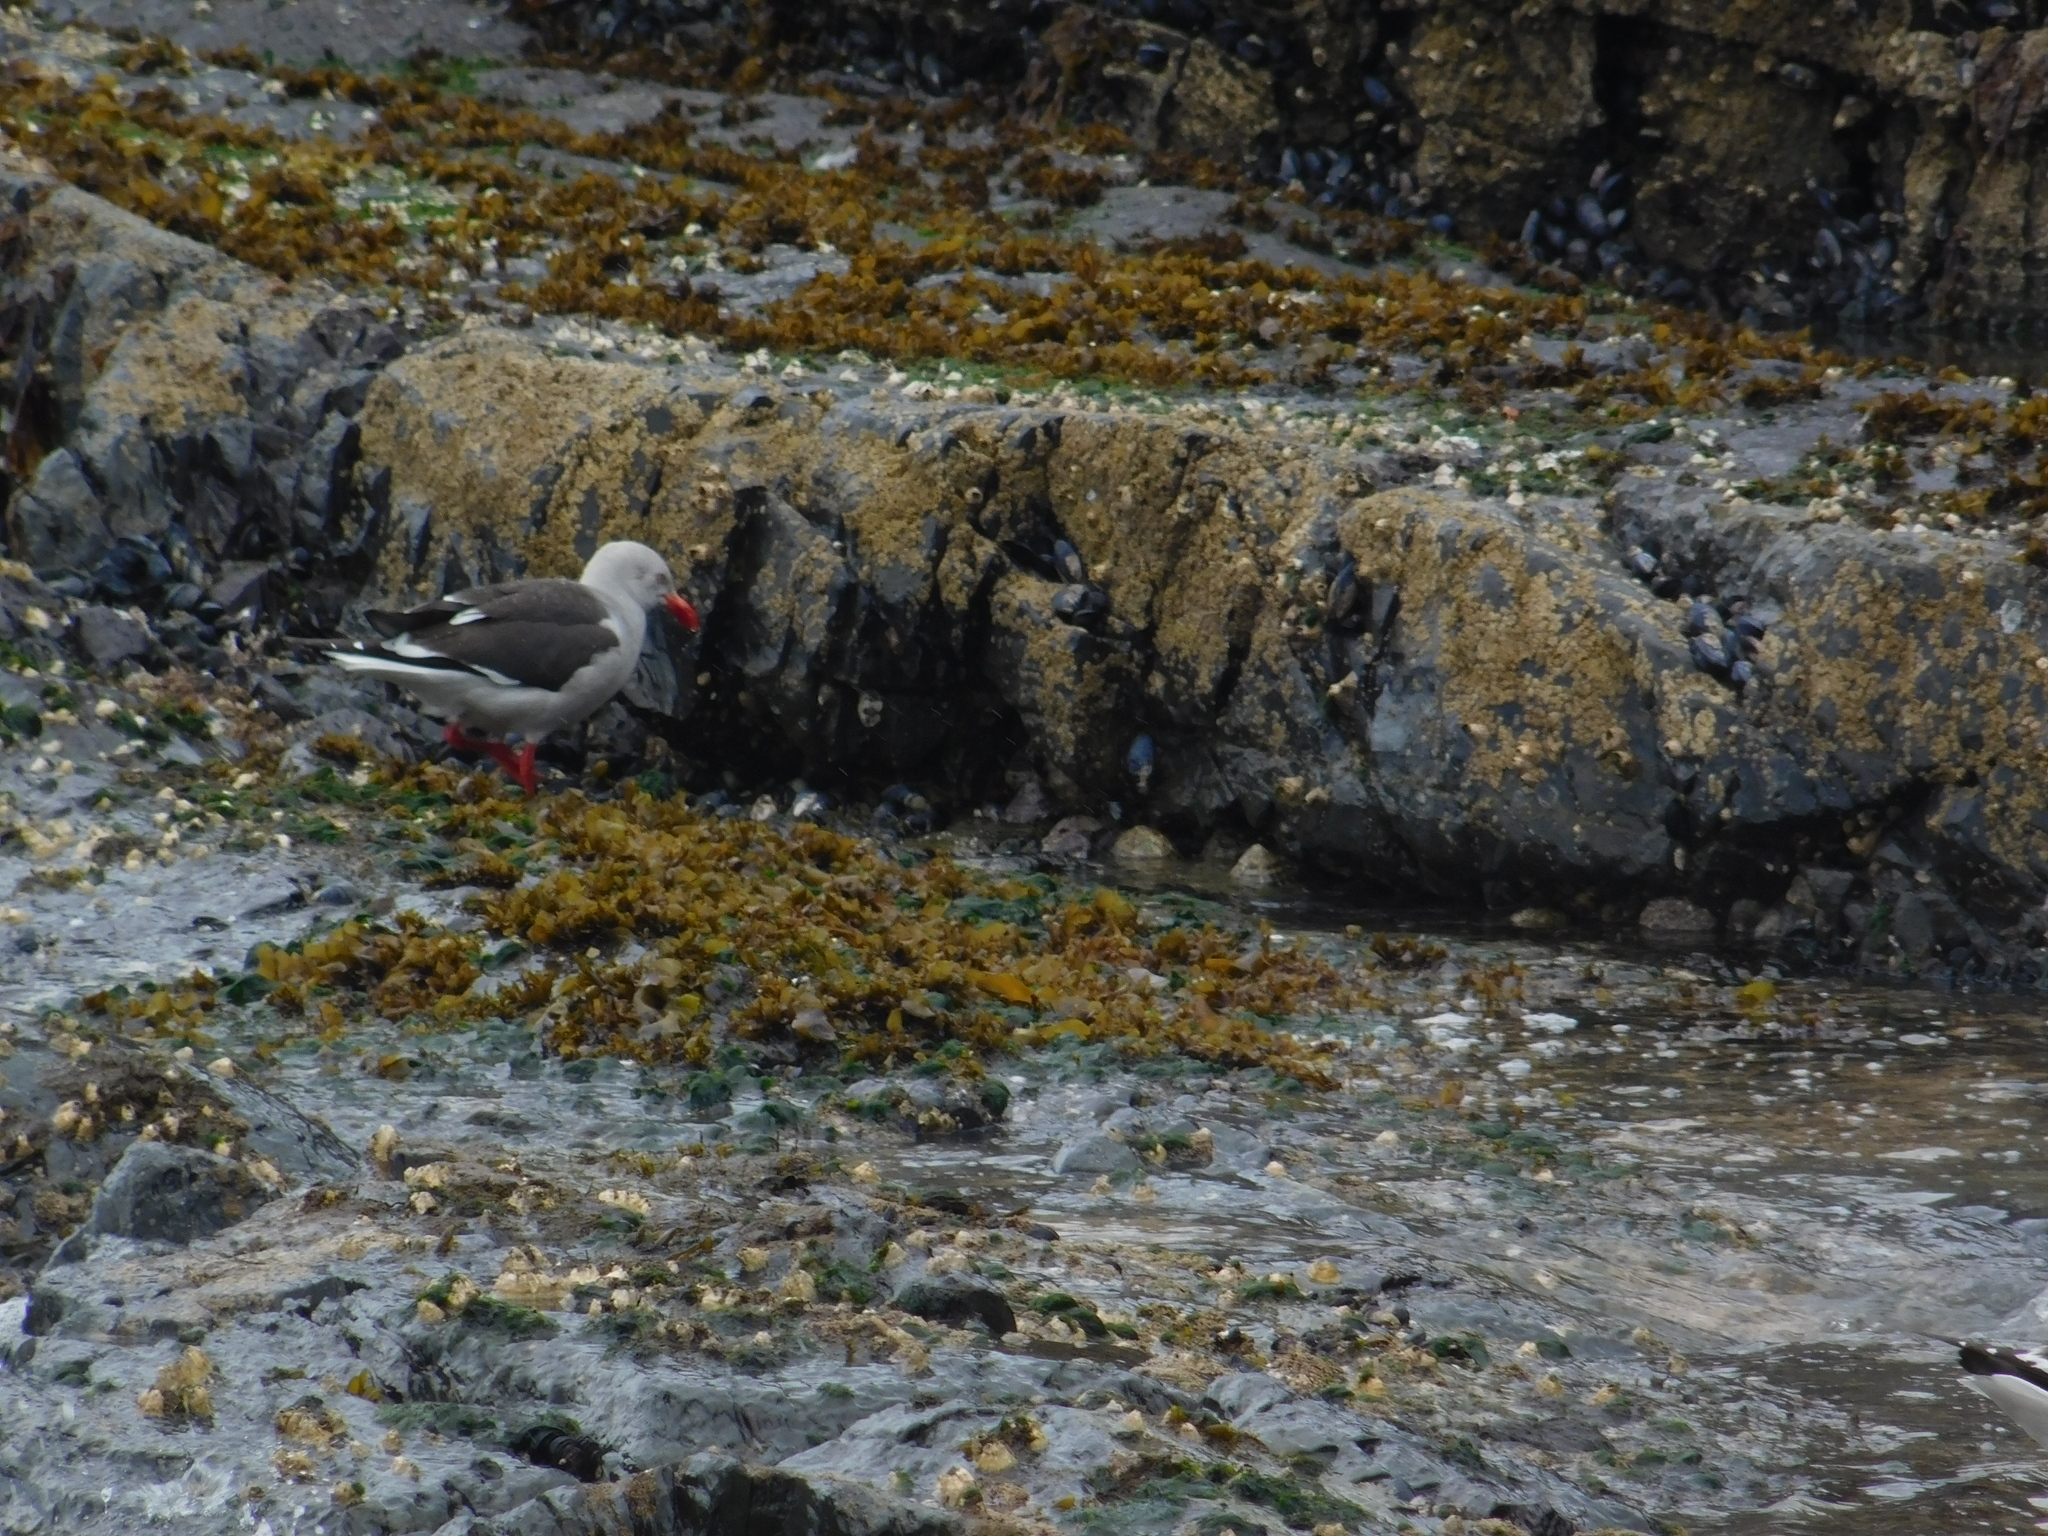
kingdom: Animalia
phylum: Chordata
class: Aves
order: Charadriiformes
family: Laridae
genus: Leucophaeus
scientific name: Leucophaeus scoresbii
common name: Dolphin gull
